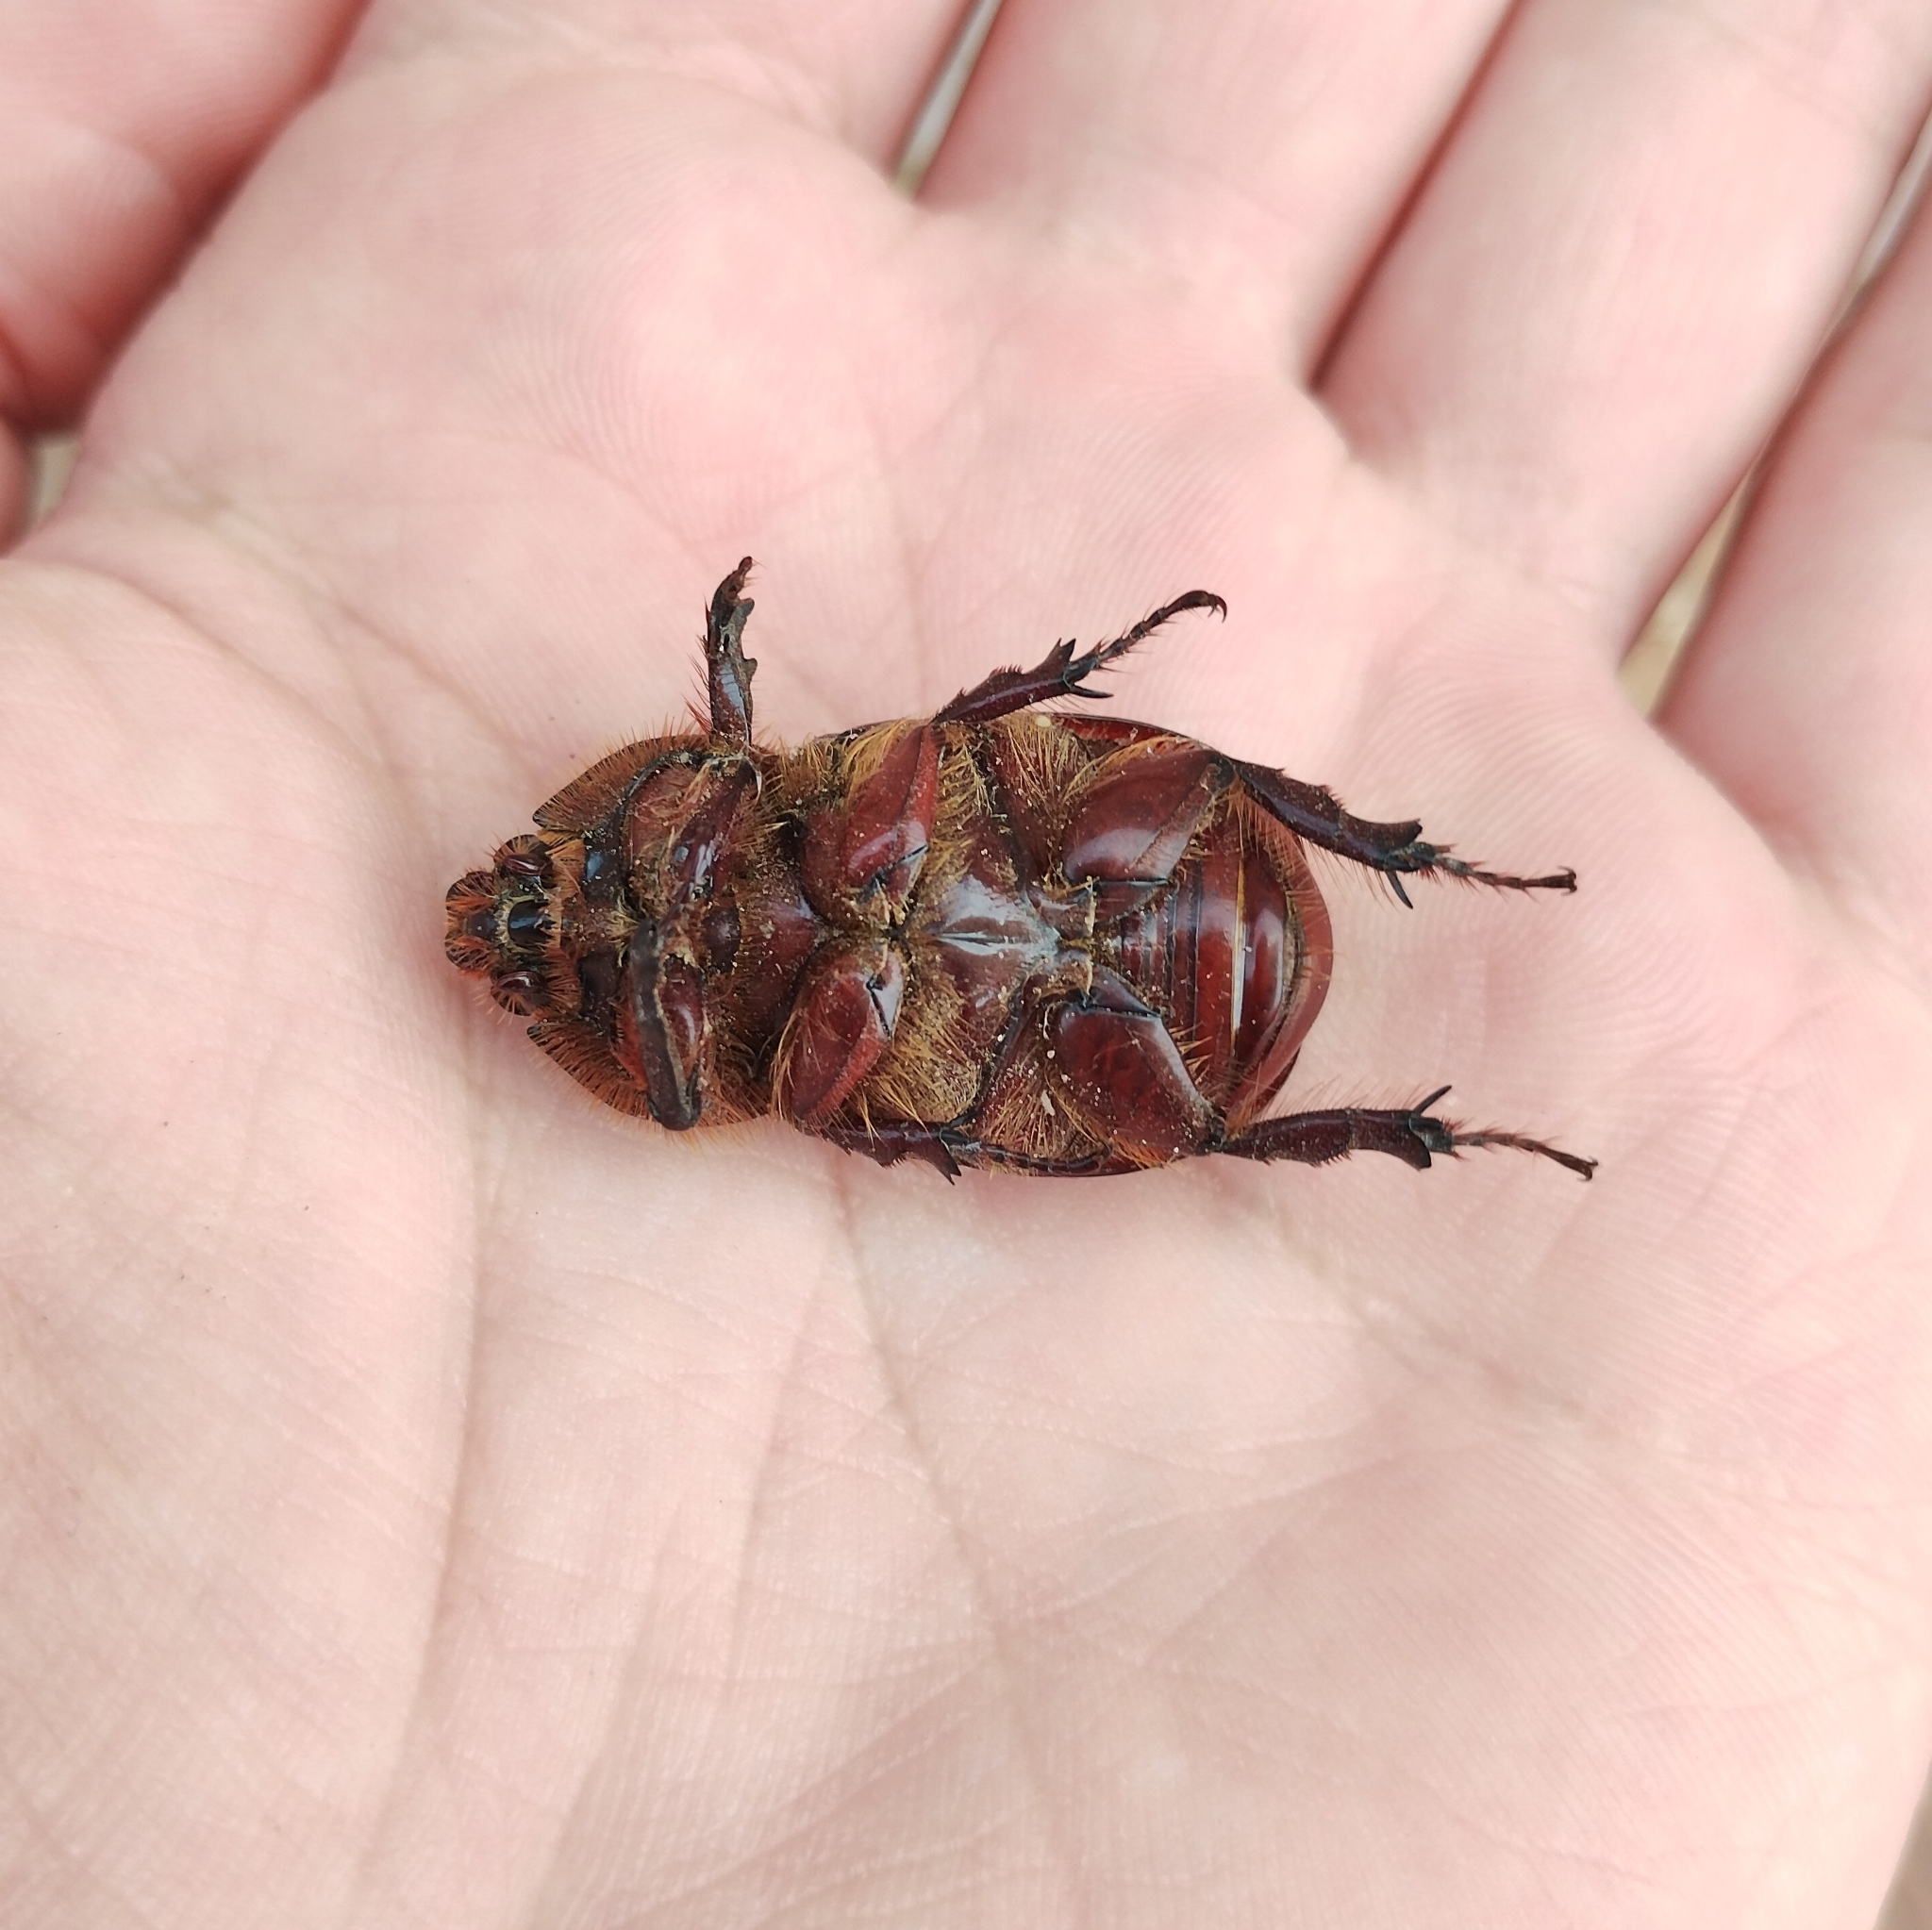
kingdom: Animalia
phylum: Arthropoda
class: Insecta
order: Coleoptera
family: Scarabaeidae
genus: Oryctes
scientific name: Oryctes nasicornis
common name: European rhinoceros beetle
